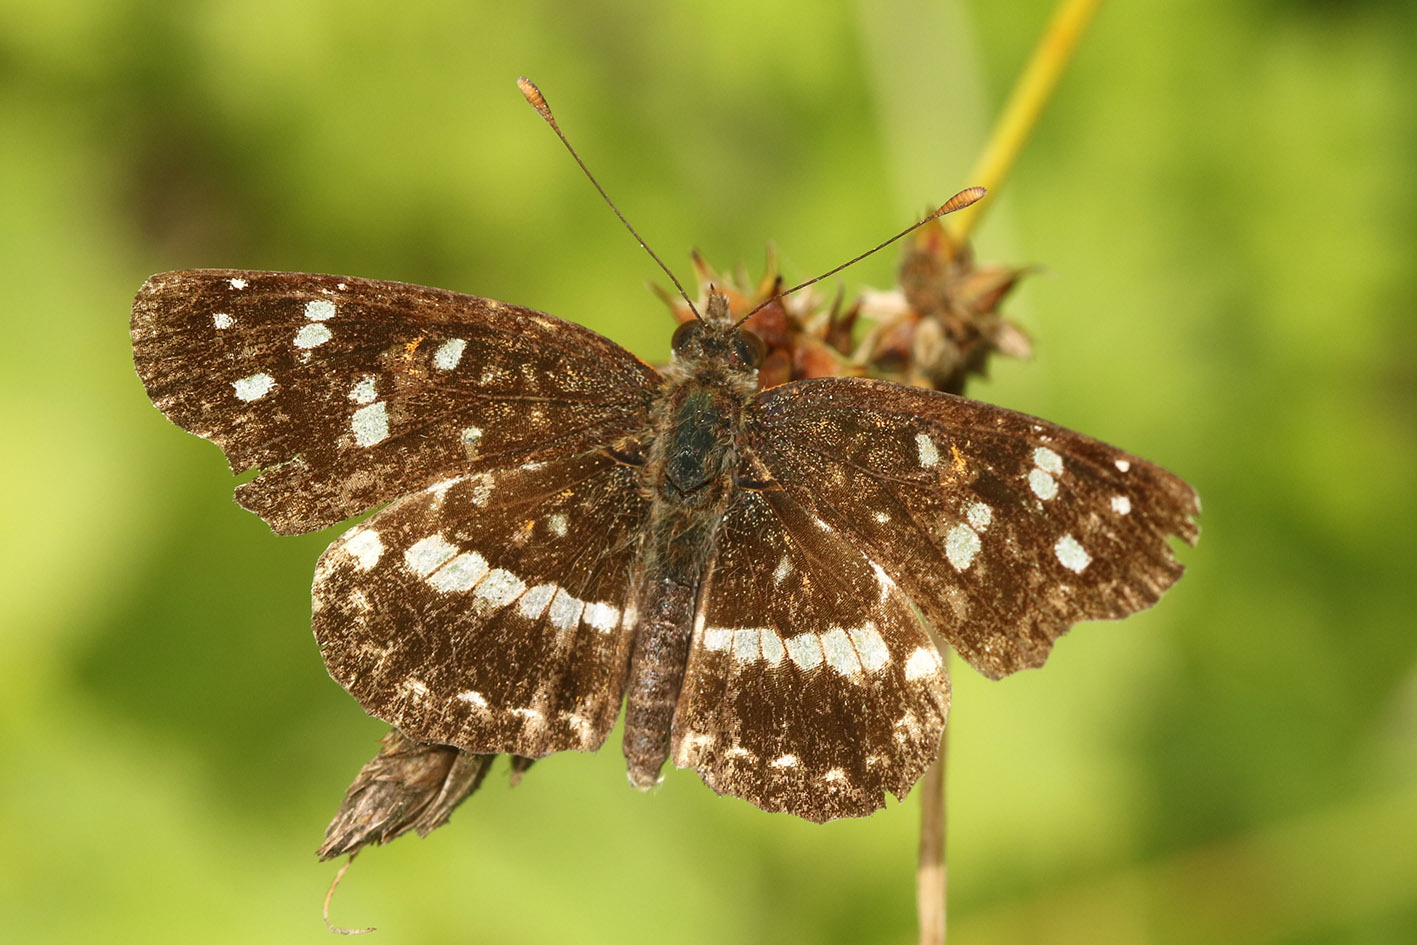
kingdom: Animalia
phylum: Arthropoda
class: Insecta
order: Lepidoptera
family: Nymphalidae
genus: Ortilia
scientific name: Ortilia ithra
